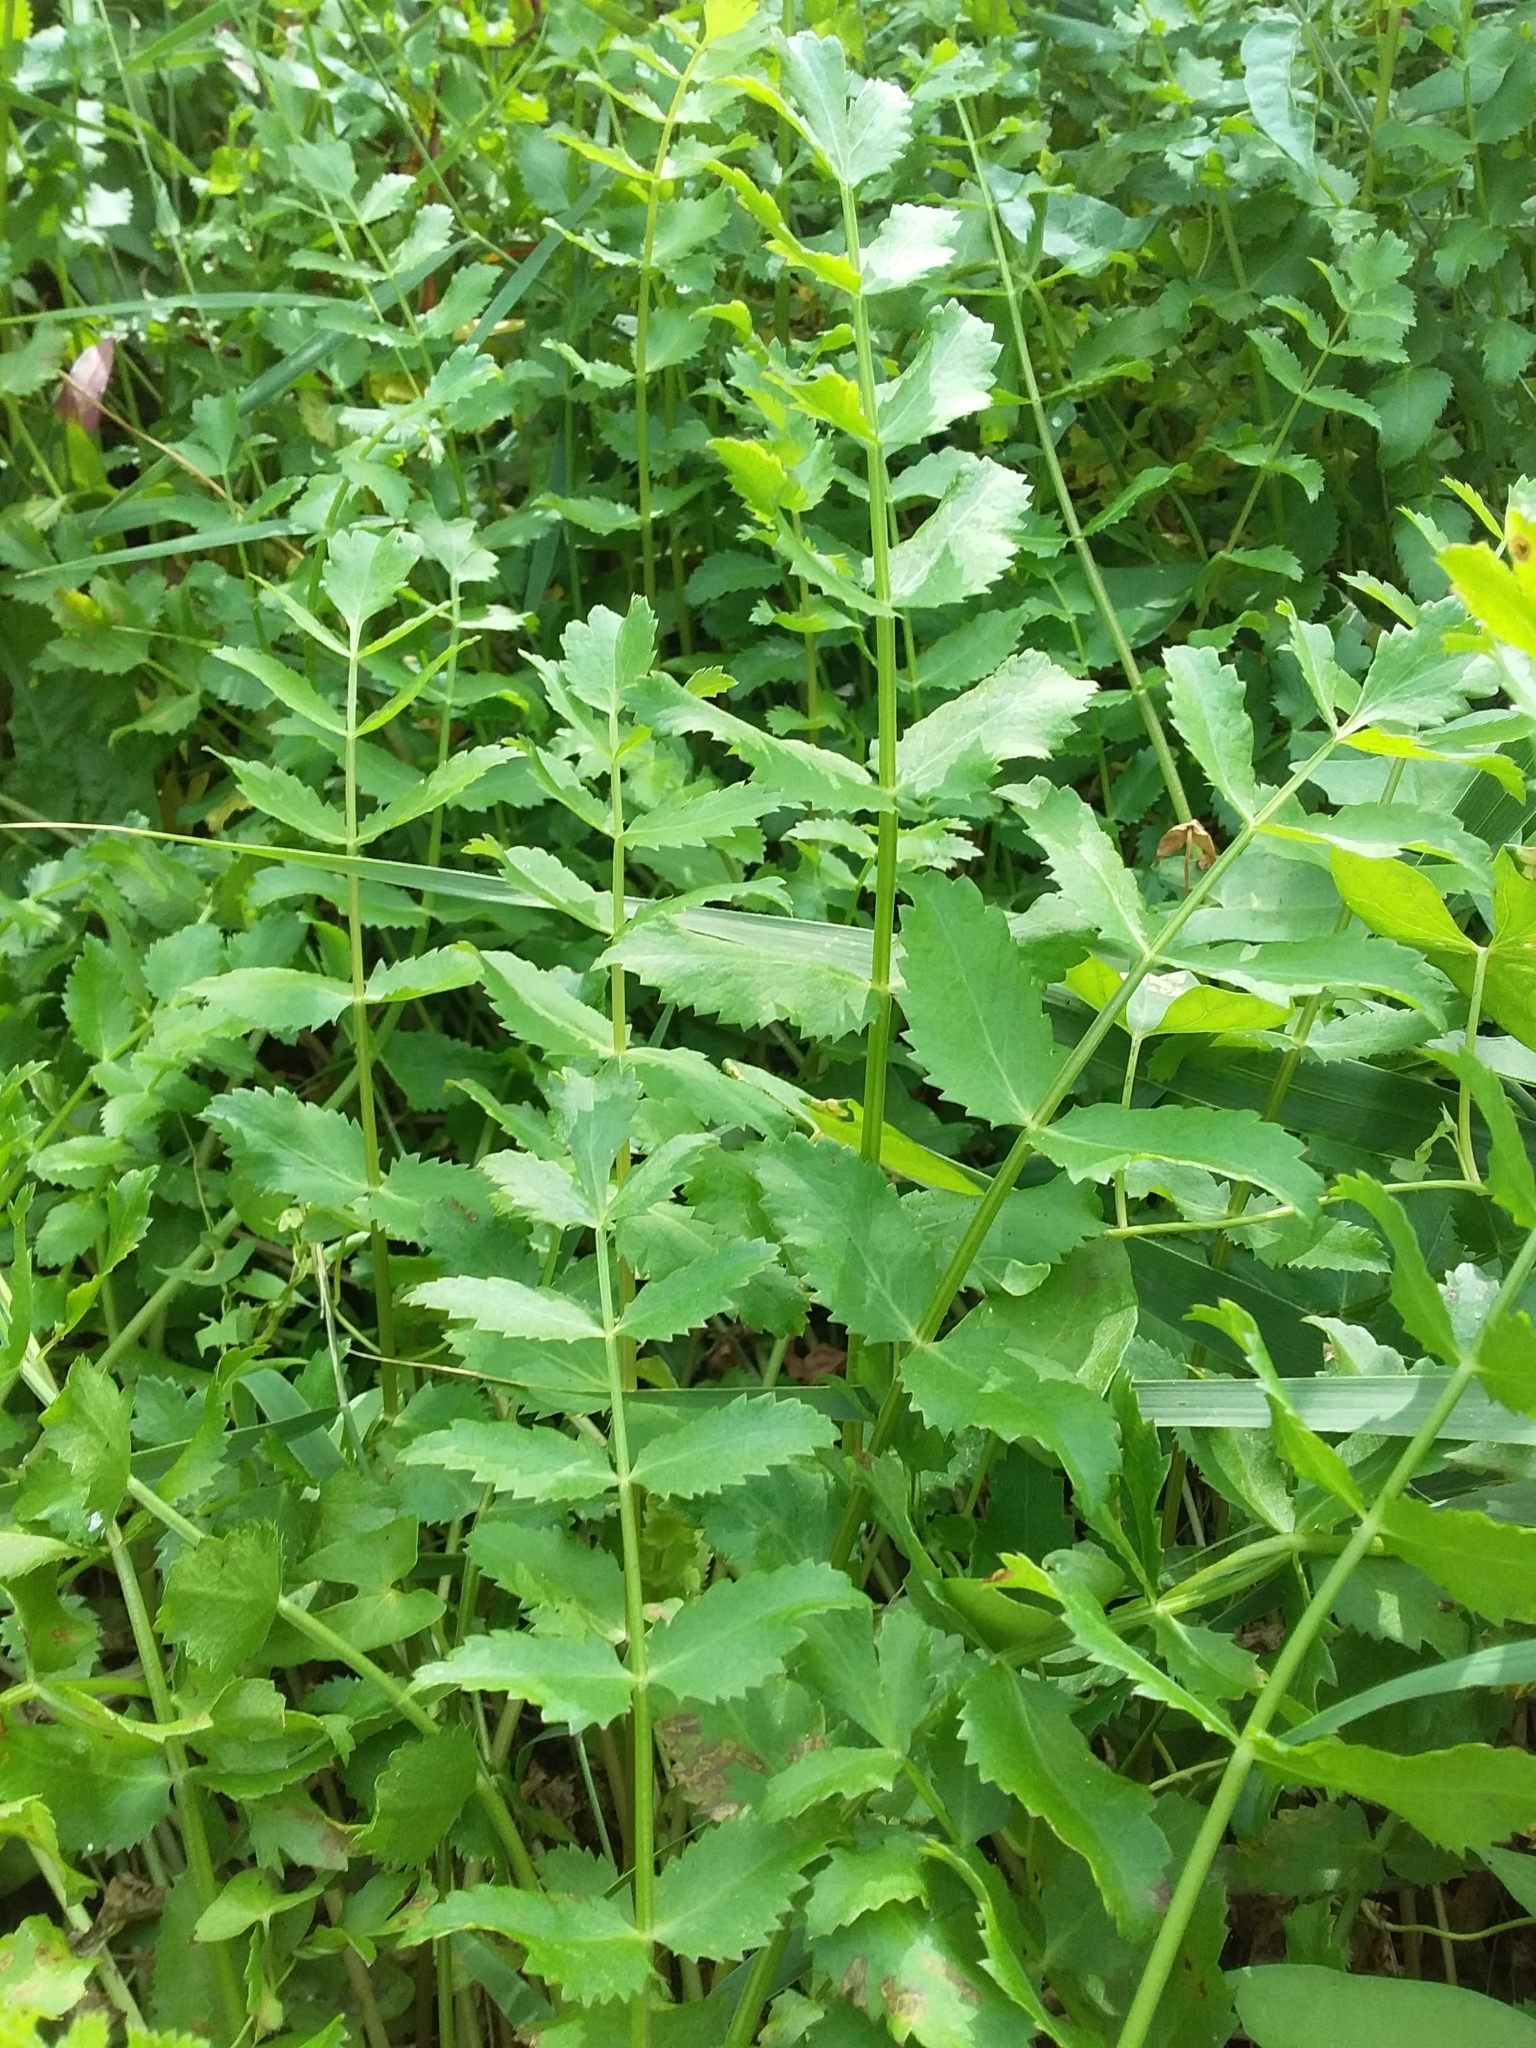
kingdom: Plantae
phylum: Tracheophyta
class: Magnoliopsida
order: Apiales
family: Apiaceae
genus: Berula
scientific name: Berula erecta
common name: Lesser water-parsnip
